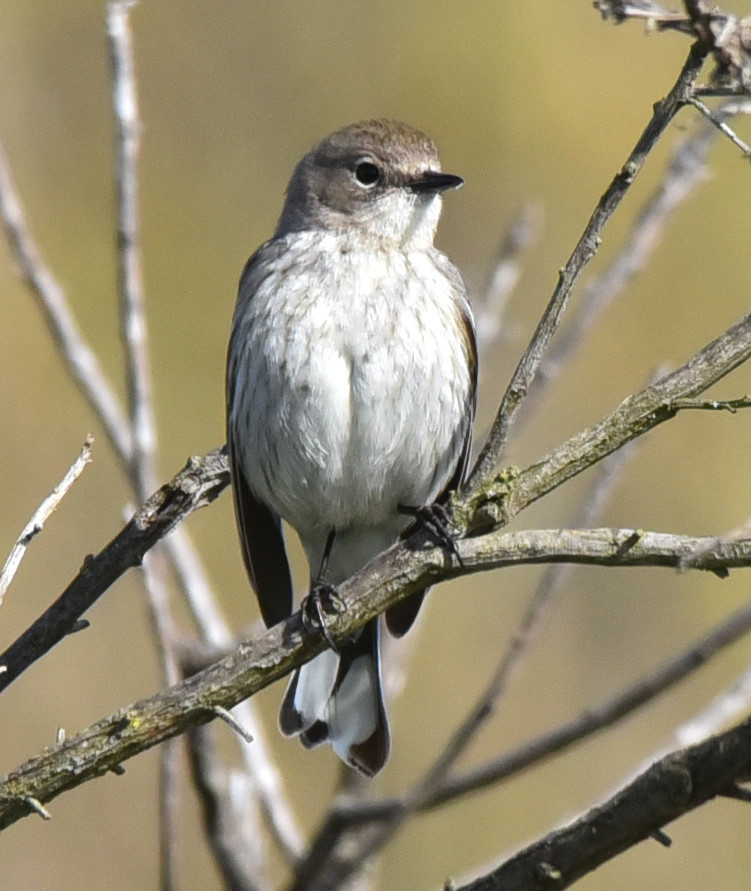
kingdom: Animalia
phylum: Chordata
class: Aves
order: Passeriformes
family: Parulidae
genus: Setophaga
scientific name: Setophaga coronata
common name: Myrtle warbler
